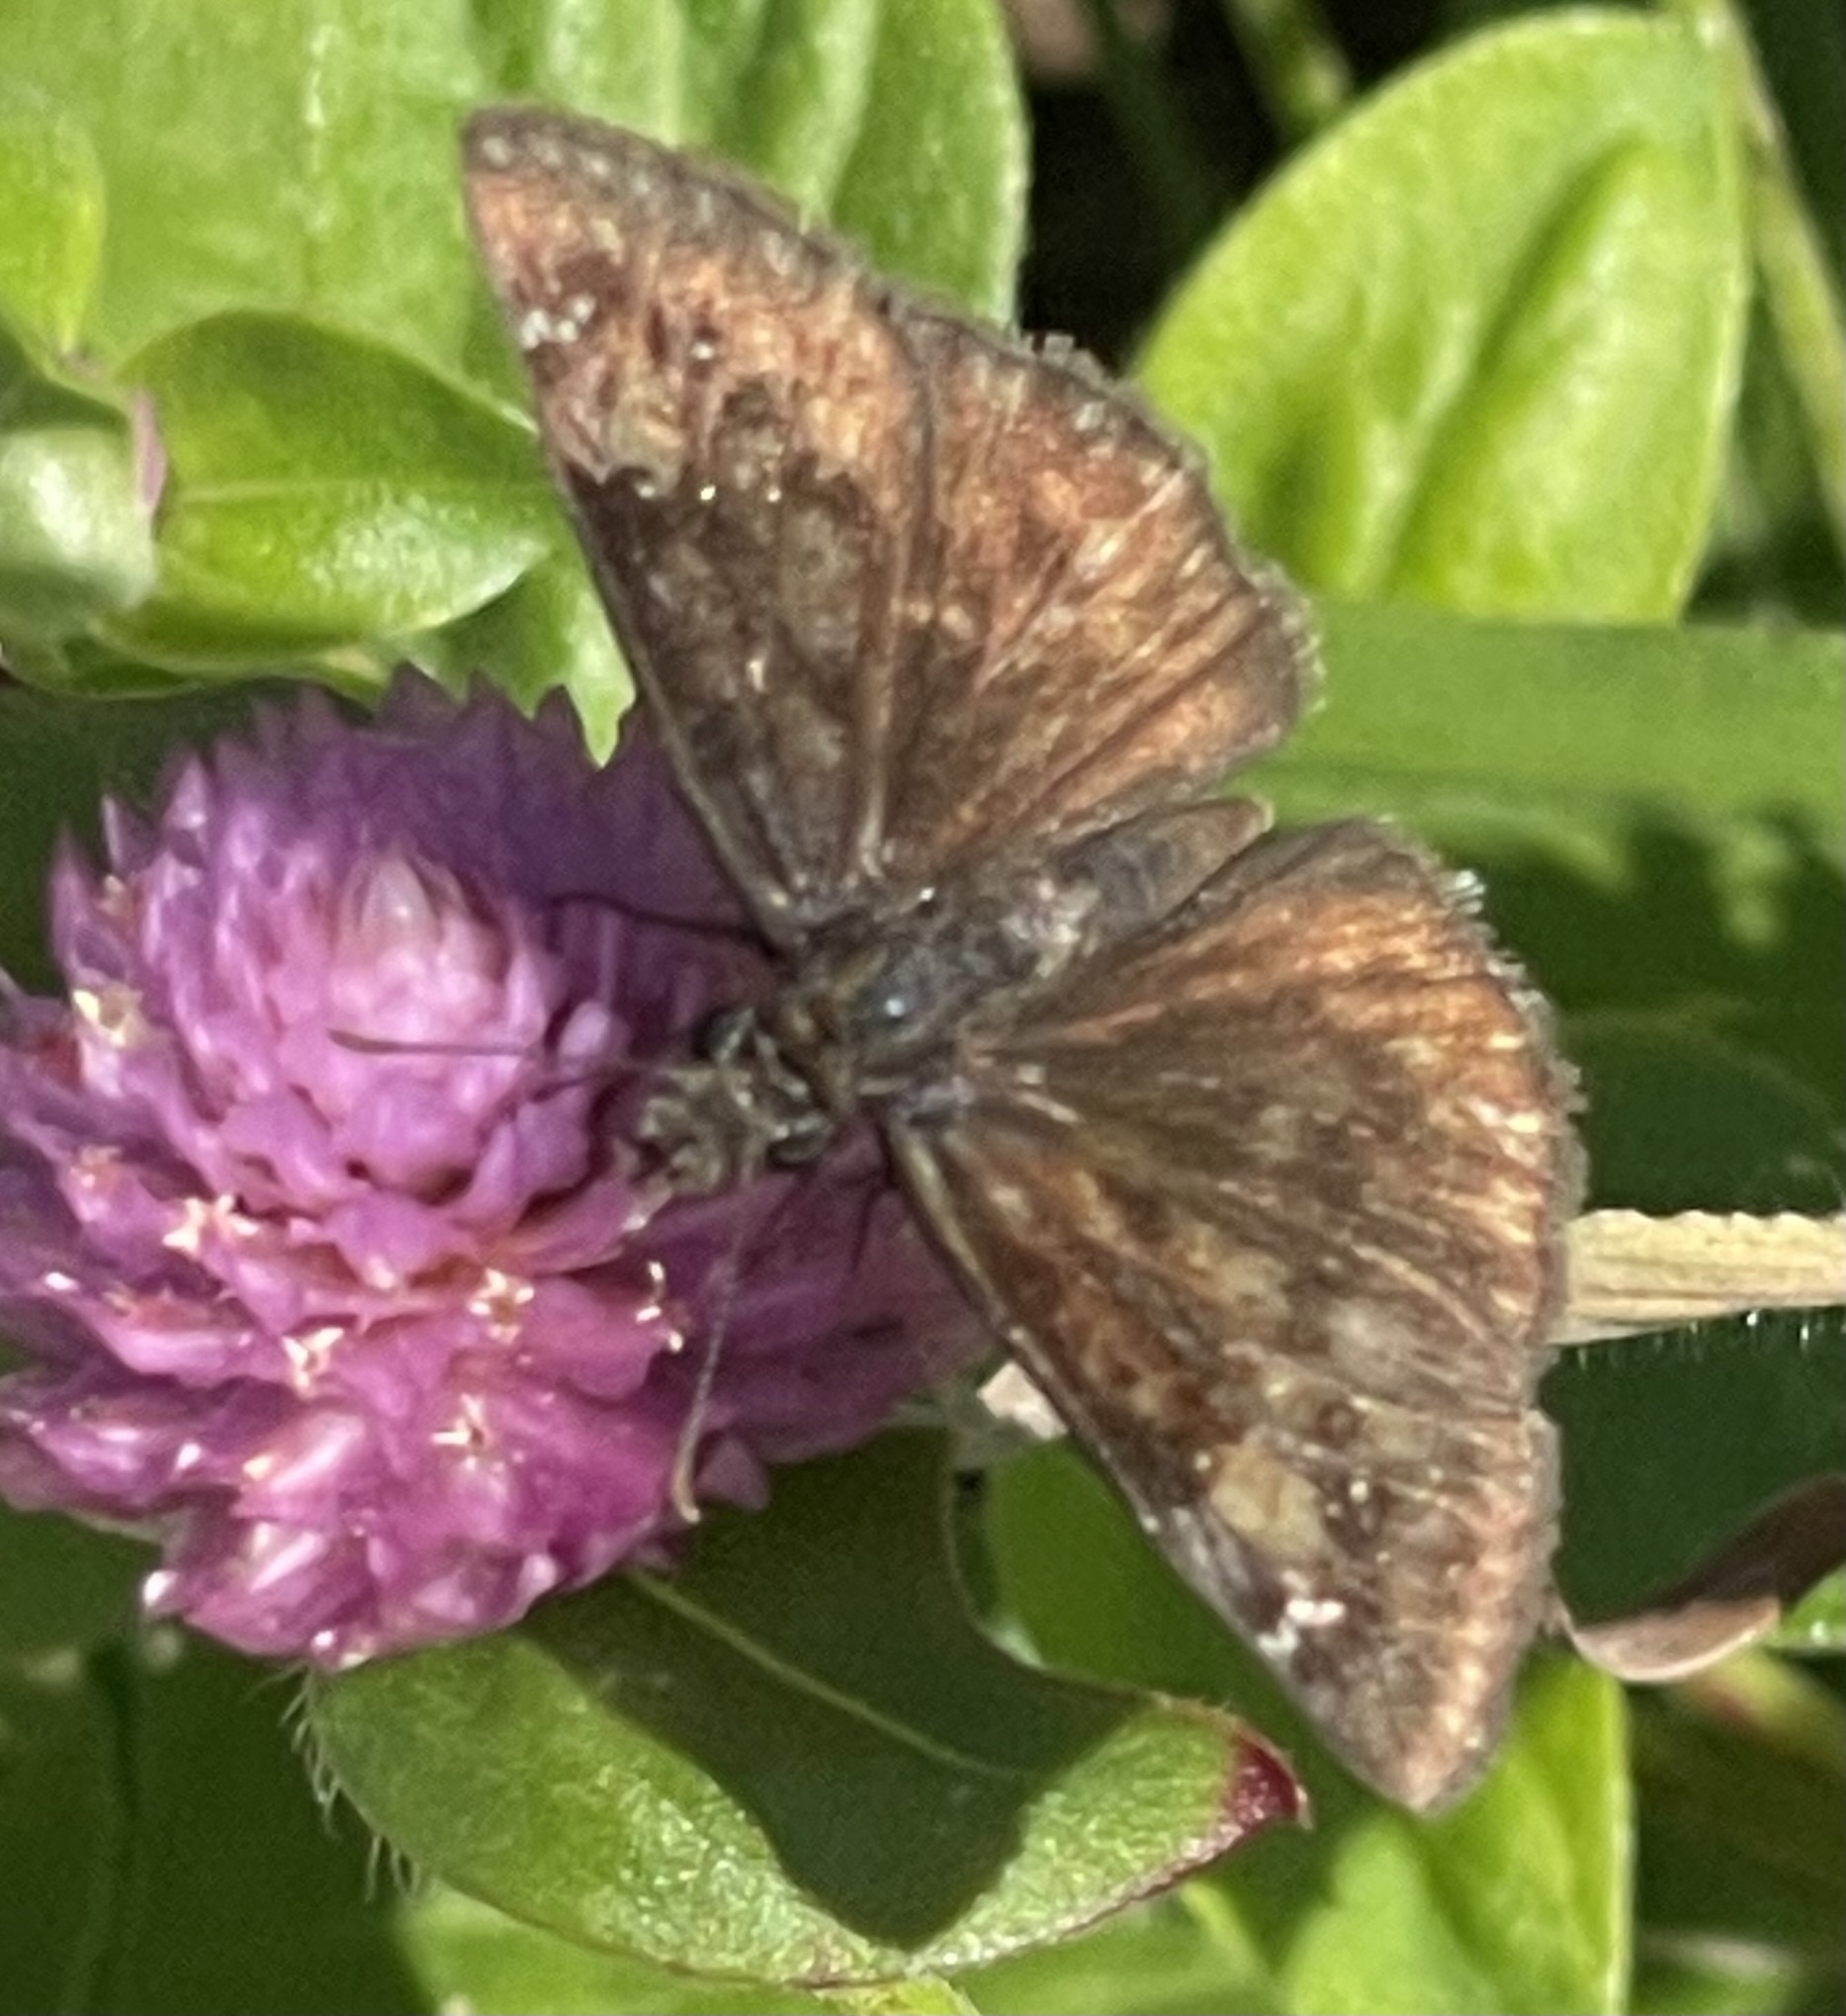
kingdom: Animalia
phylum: Arthropoda
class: Insecta
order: Lepidoptera
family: Hesperiidae
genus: Erynnis
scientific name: Erynnis baptisiae
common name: Wild indigo duskywing
